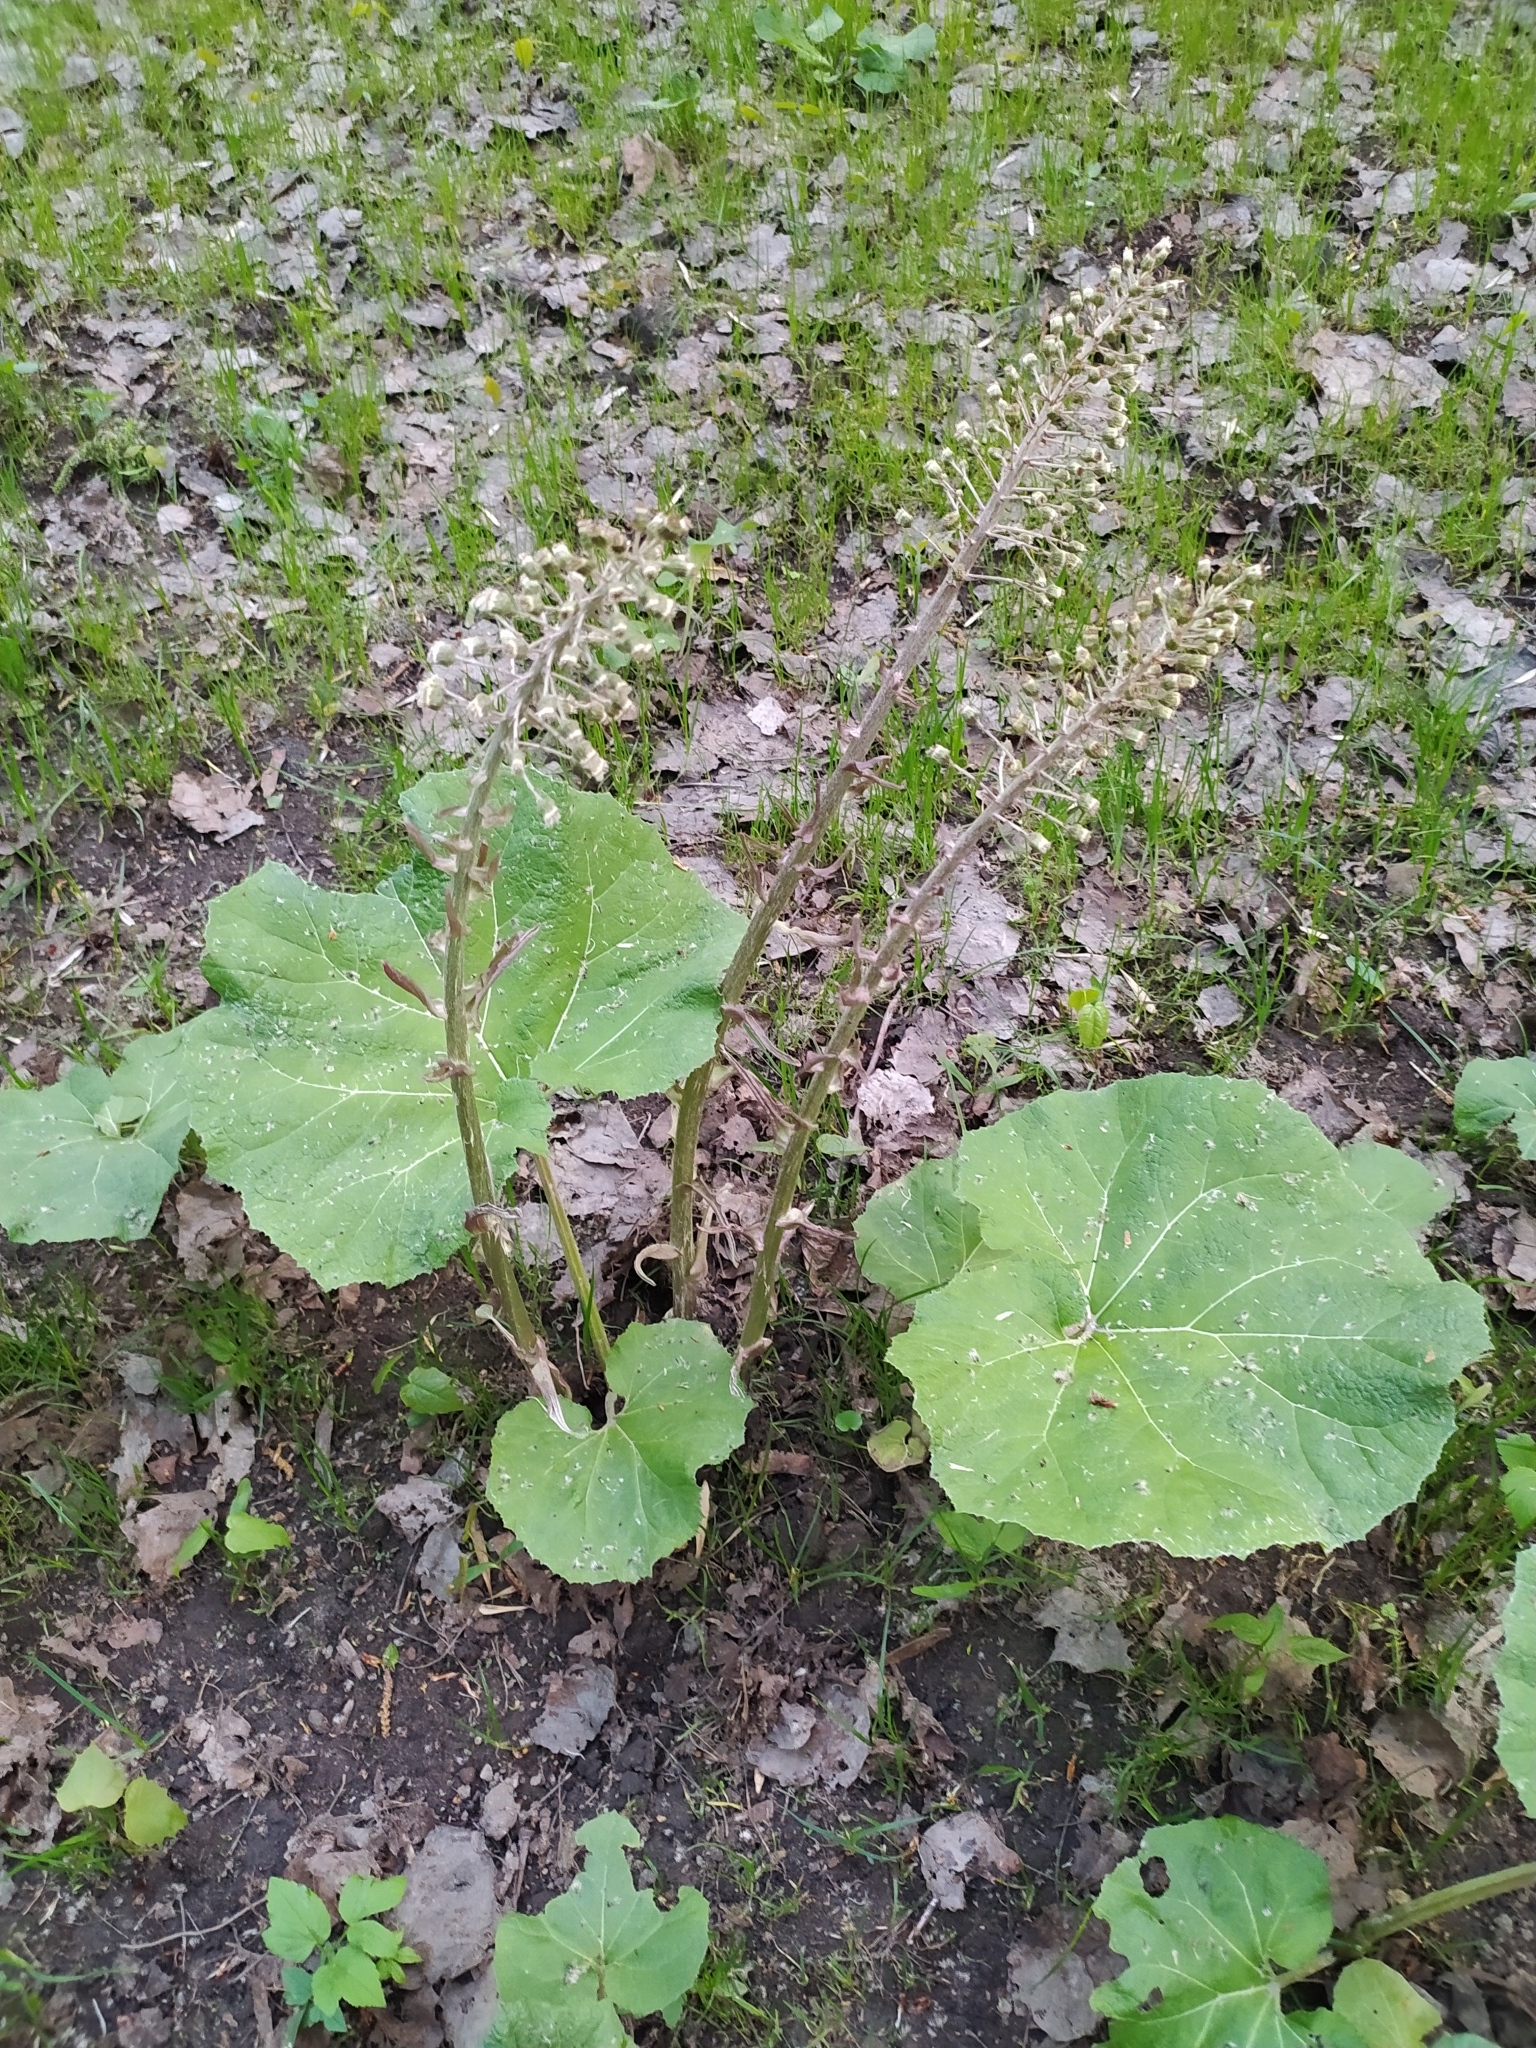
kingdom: Plantae
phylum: Tracheophyta
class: Magnoliopsida
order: Asterales
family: Asteraceae
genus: Petasites
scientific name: Petasites hybridus
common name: Butterbur
